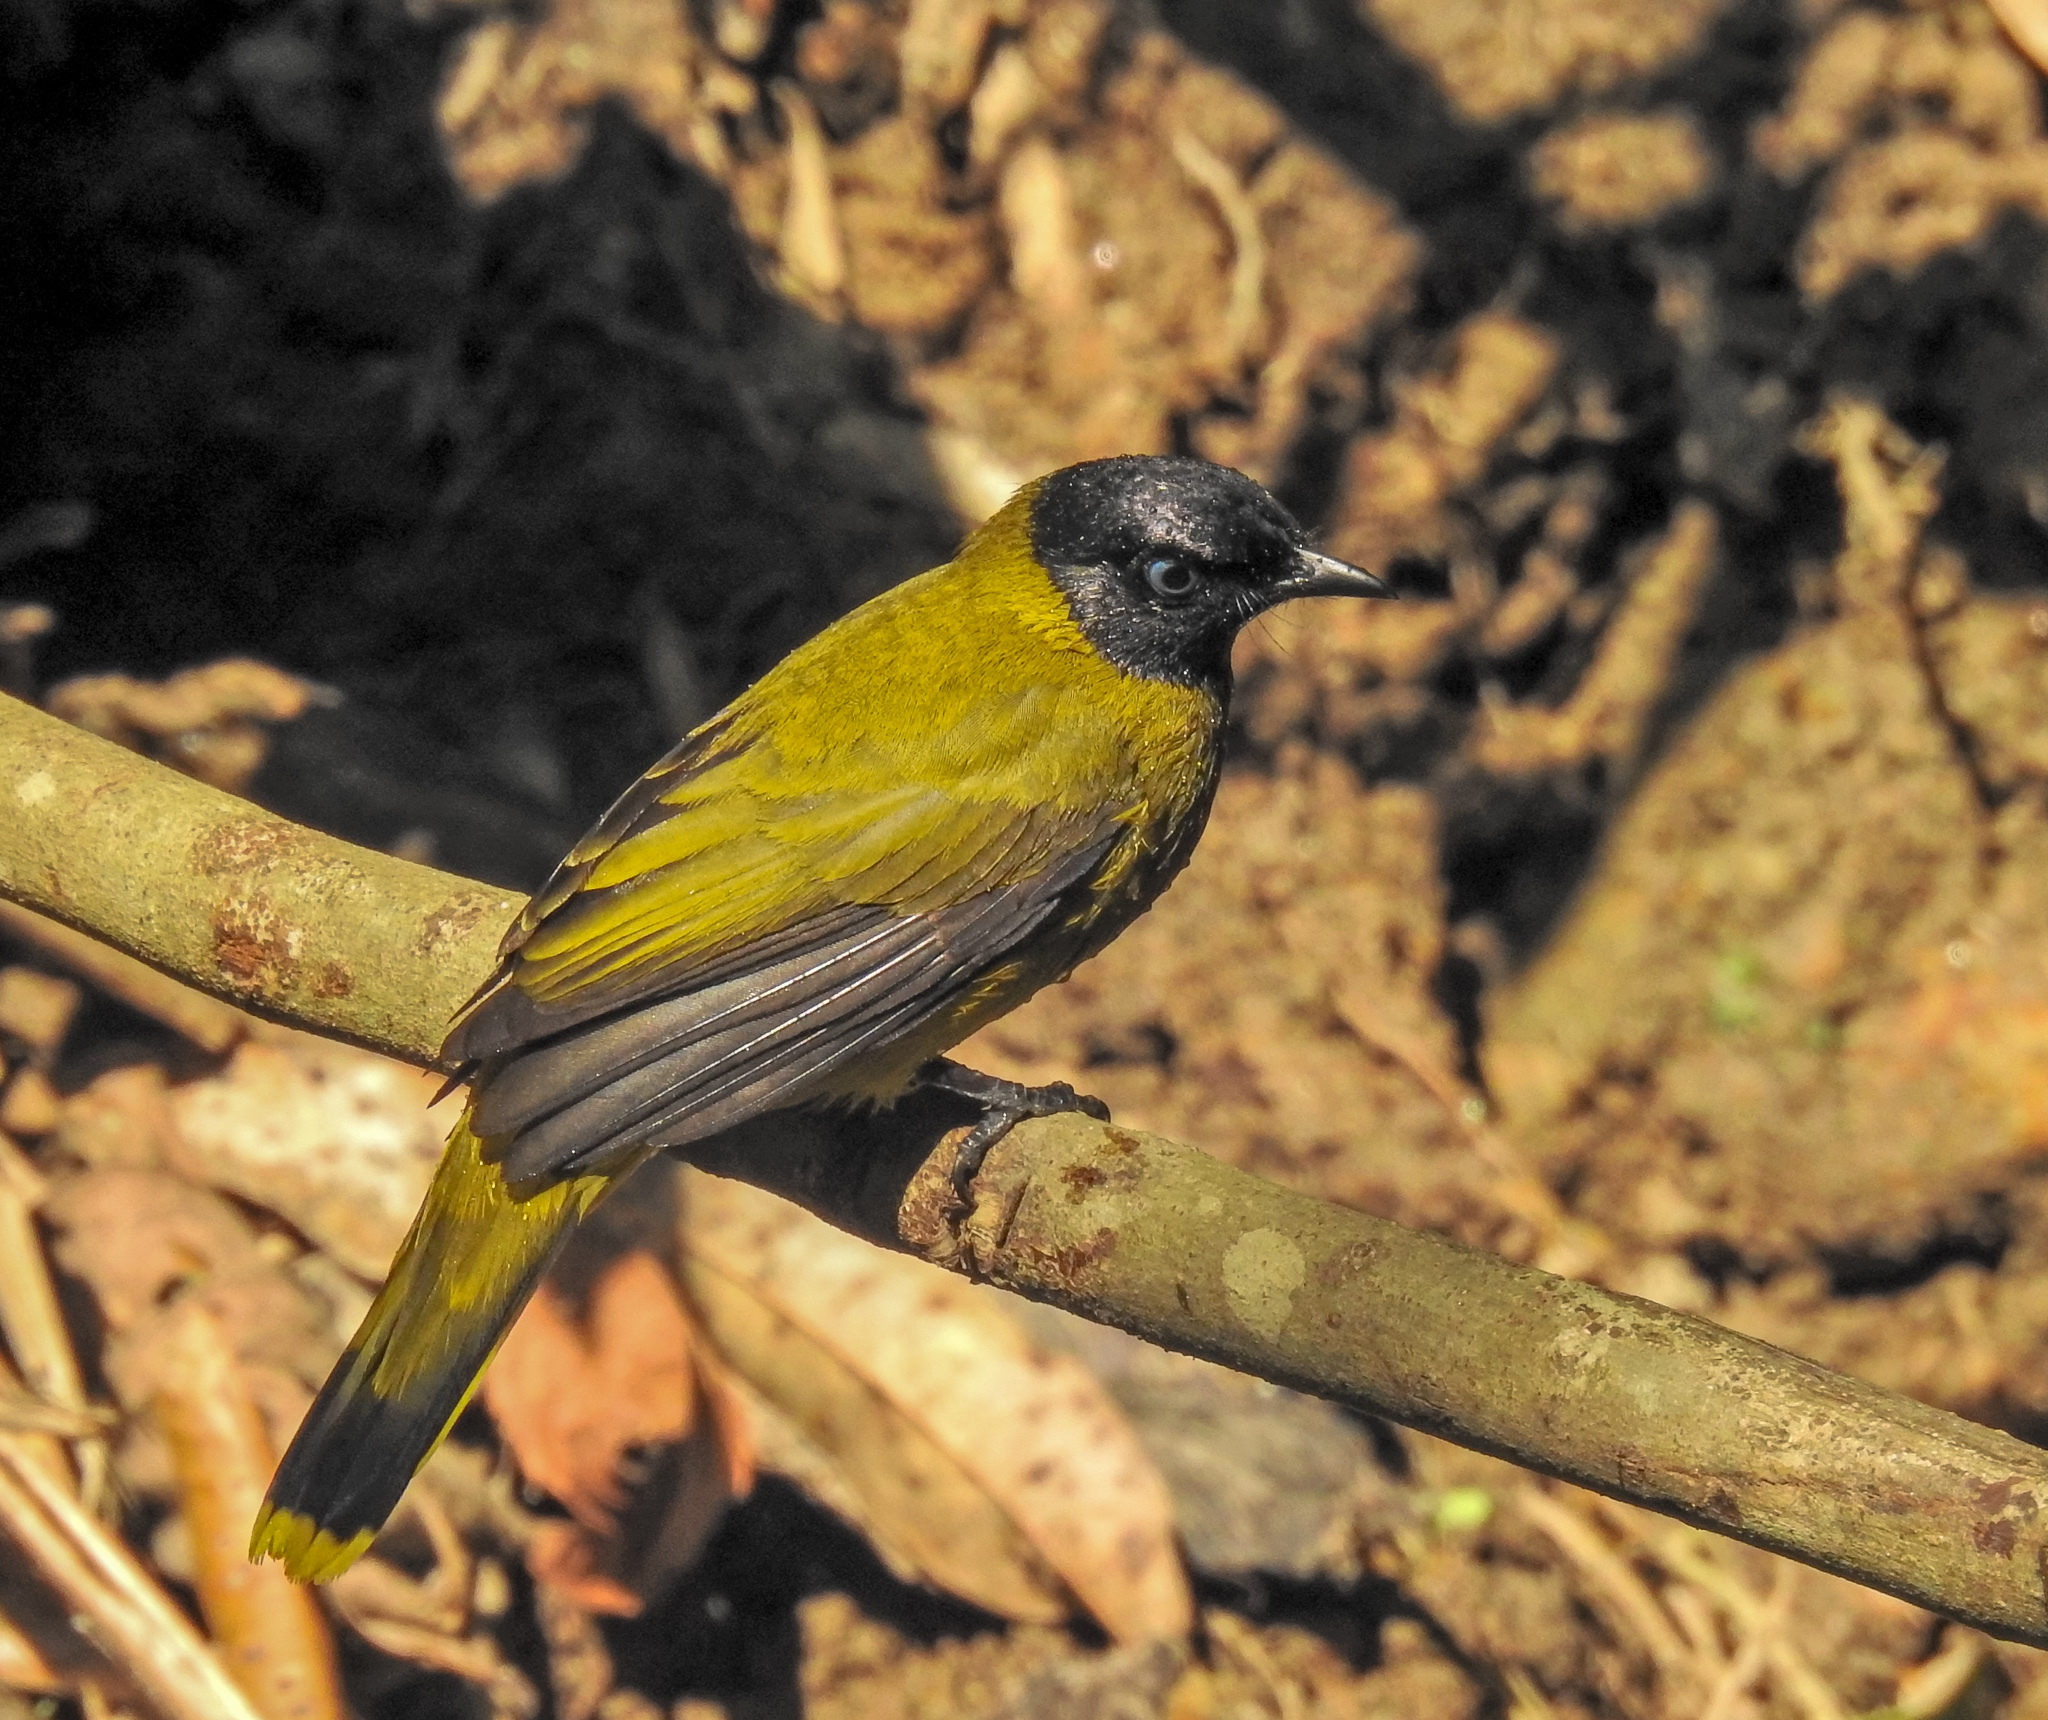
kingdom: Animalia
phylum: Chordata
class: Aves
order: Passeriformes
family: Pycnonotidae
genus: Microtarsus
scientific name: Microtarsus
